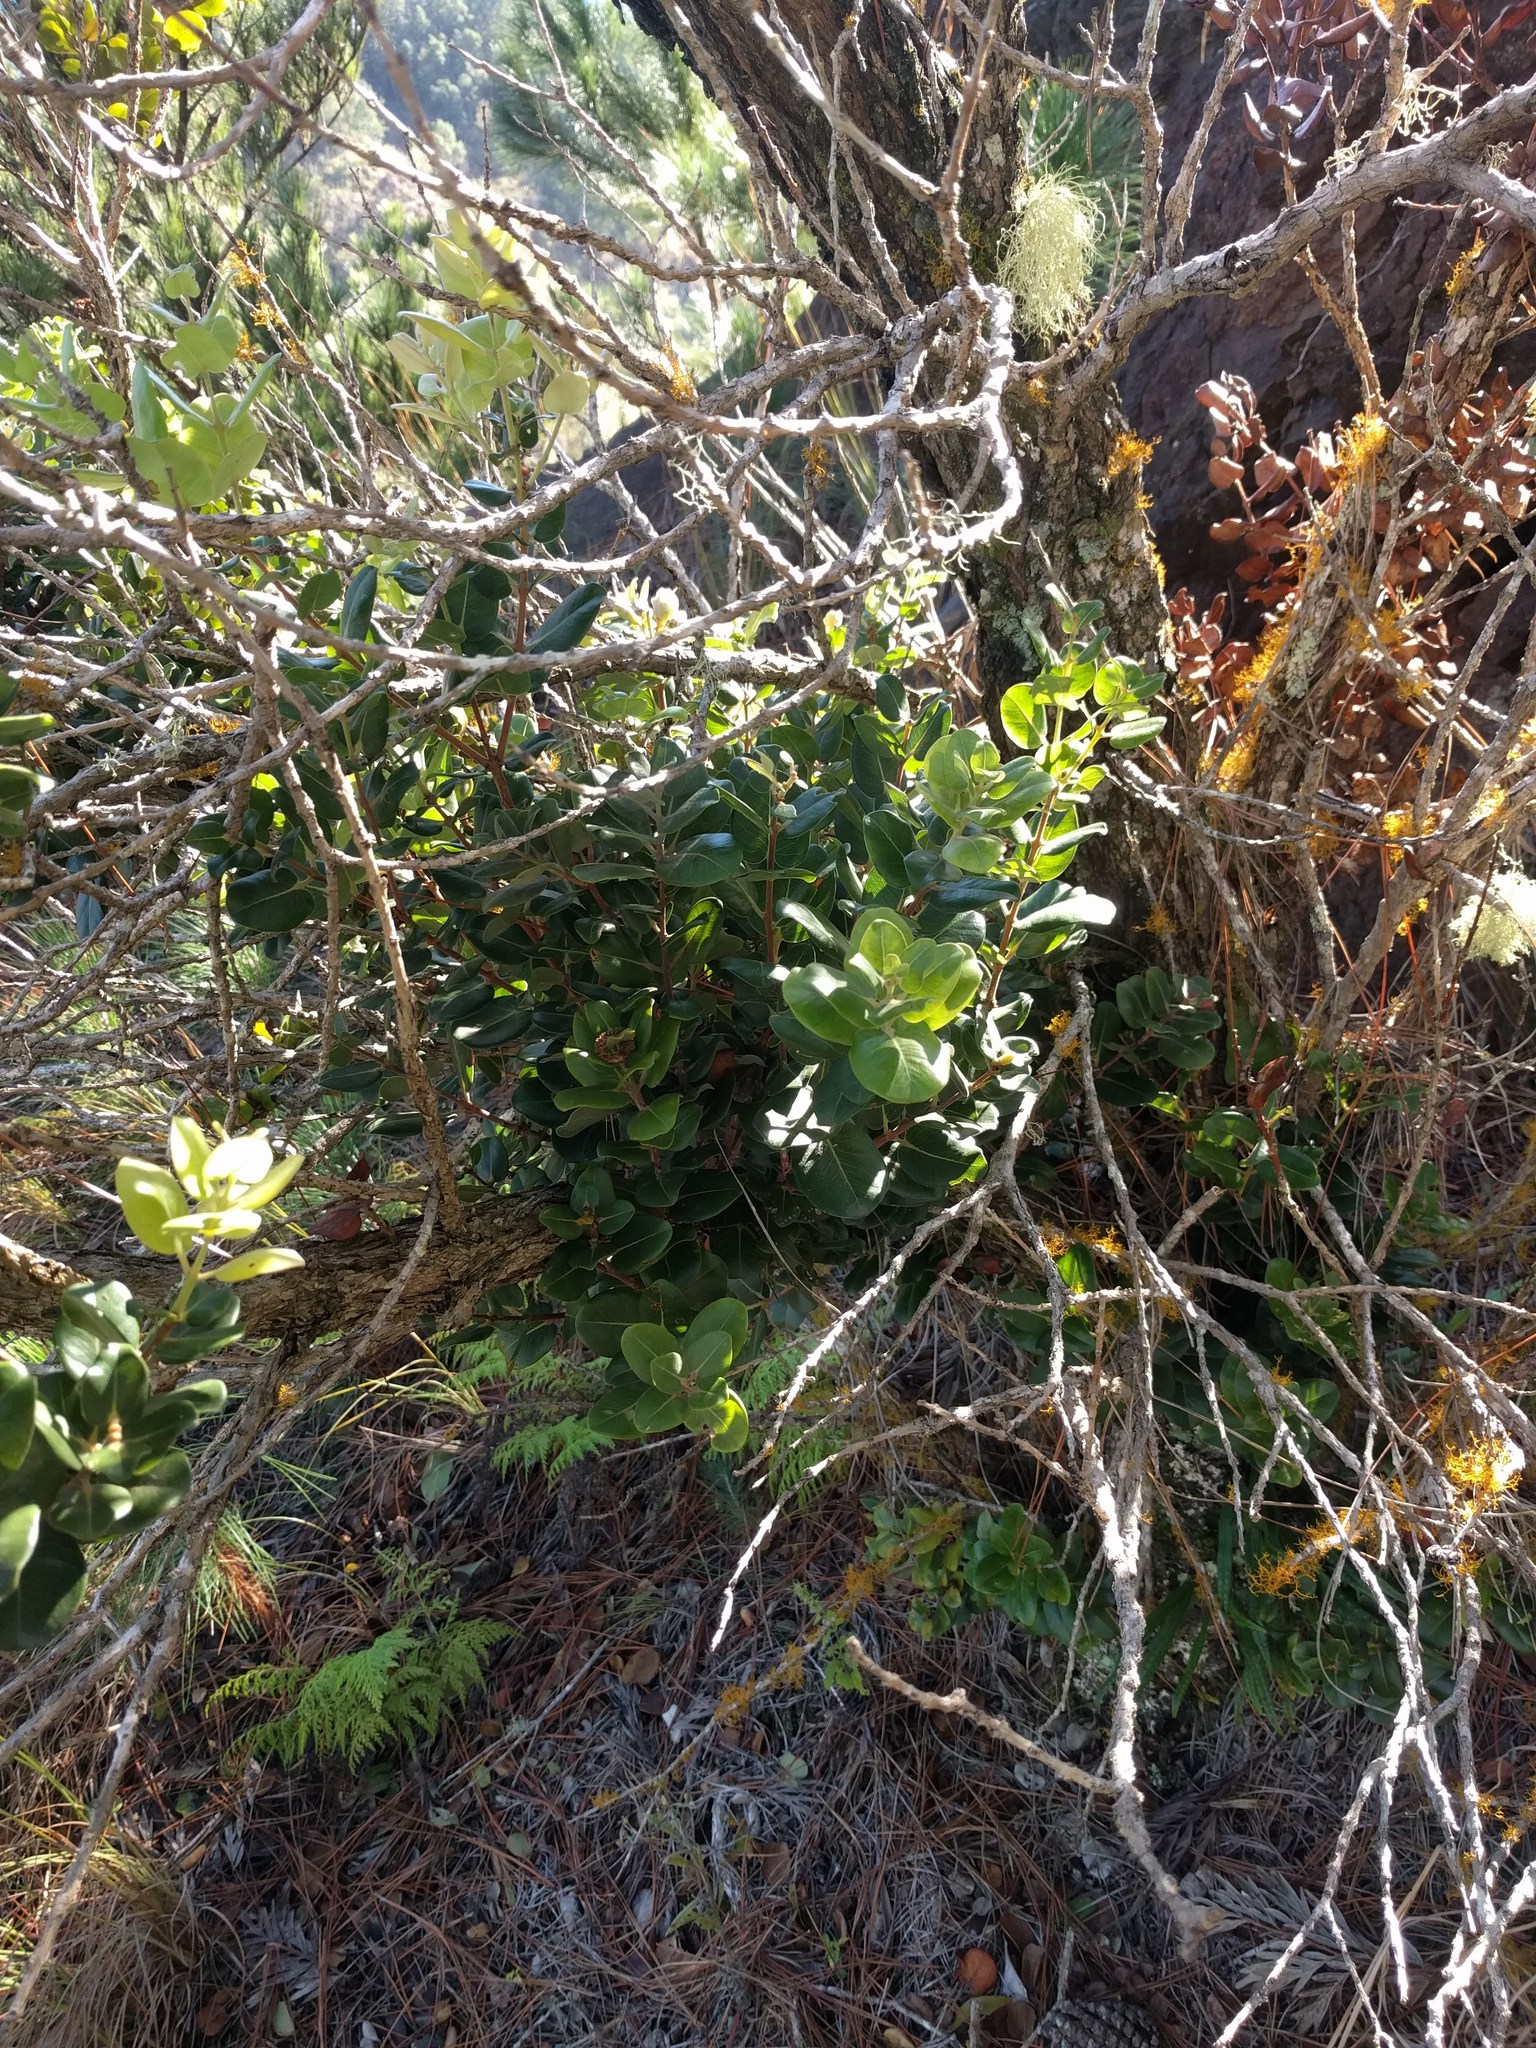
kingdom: Plantae
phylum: Tracheophyta
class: Magnoliopsida
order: Myrtales
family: Myrtaceae
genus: Metrosideros
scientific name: Metrosideros polymorpha
